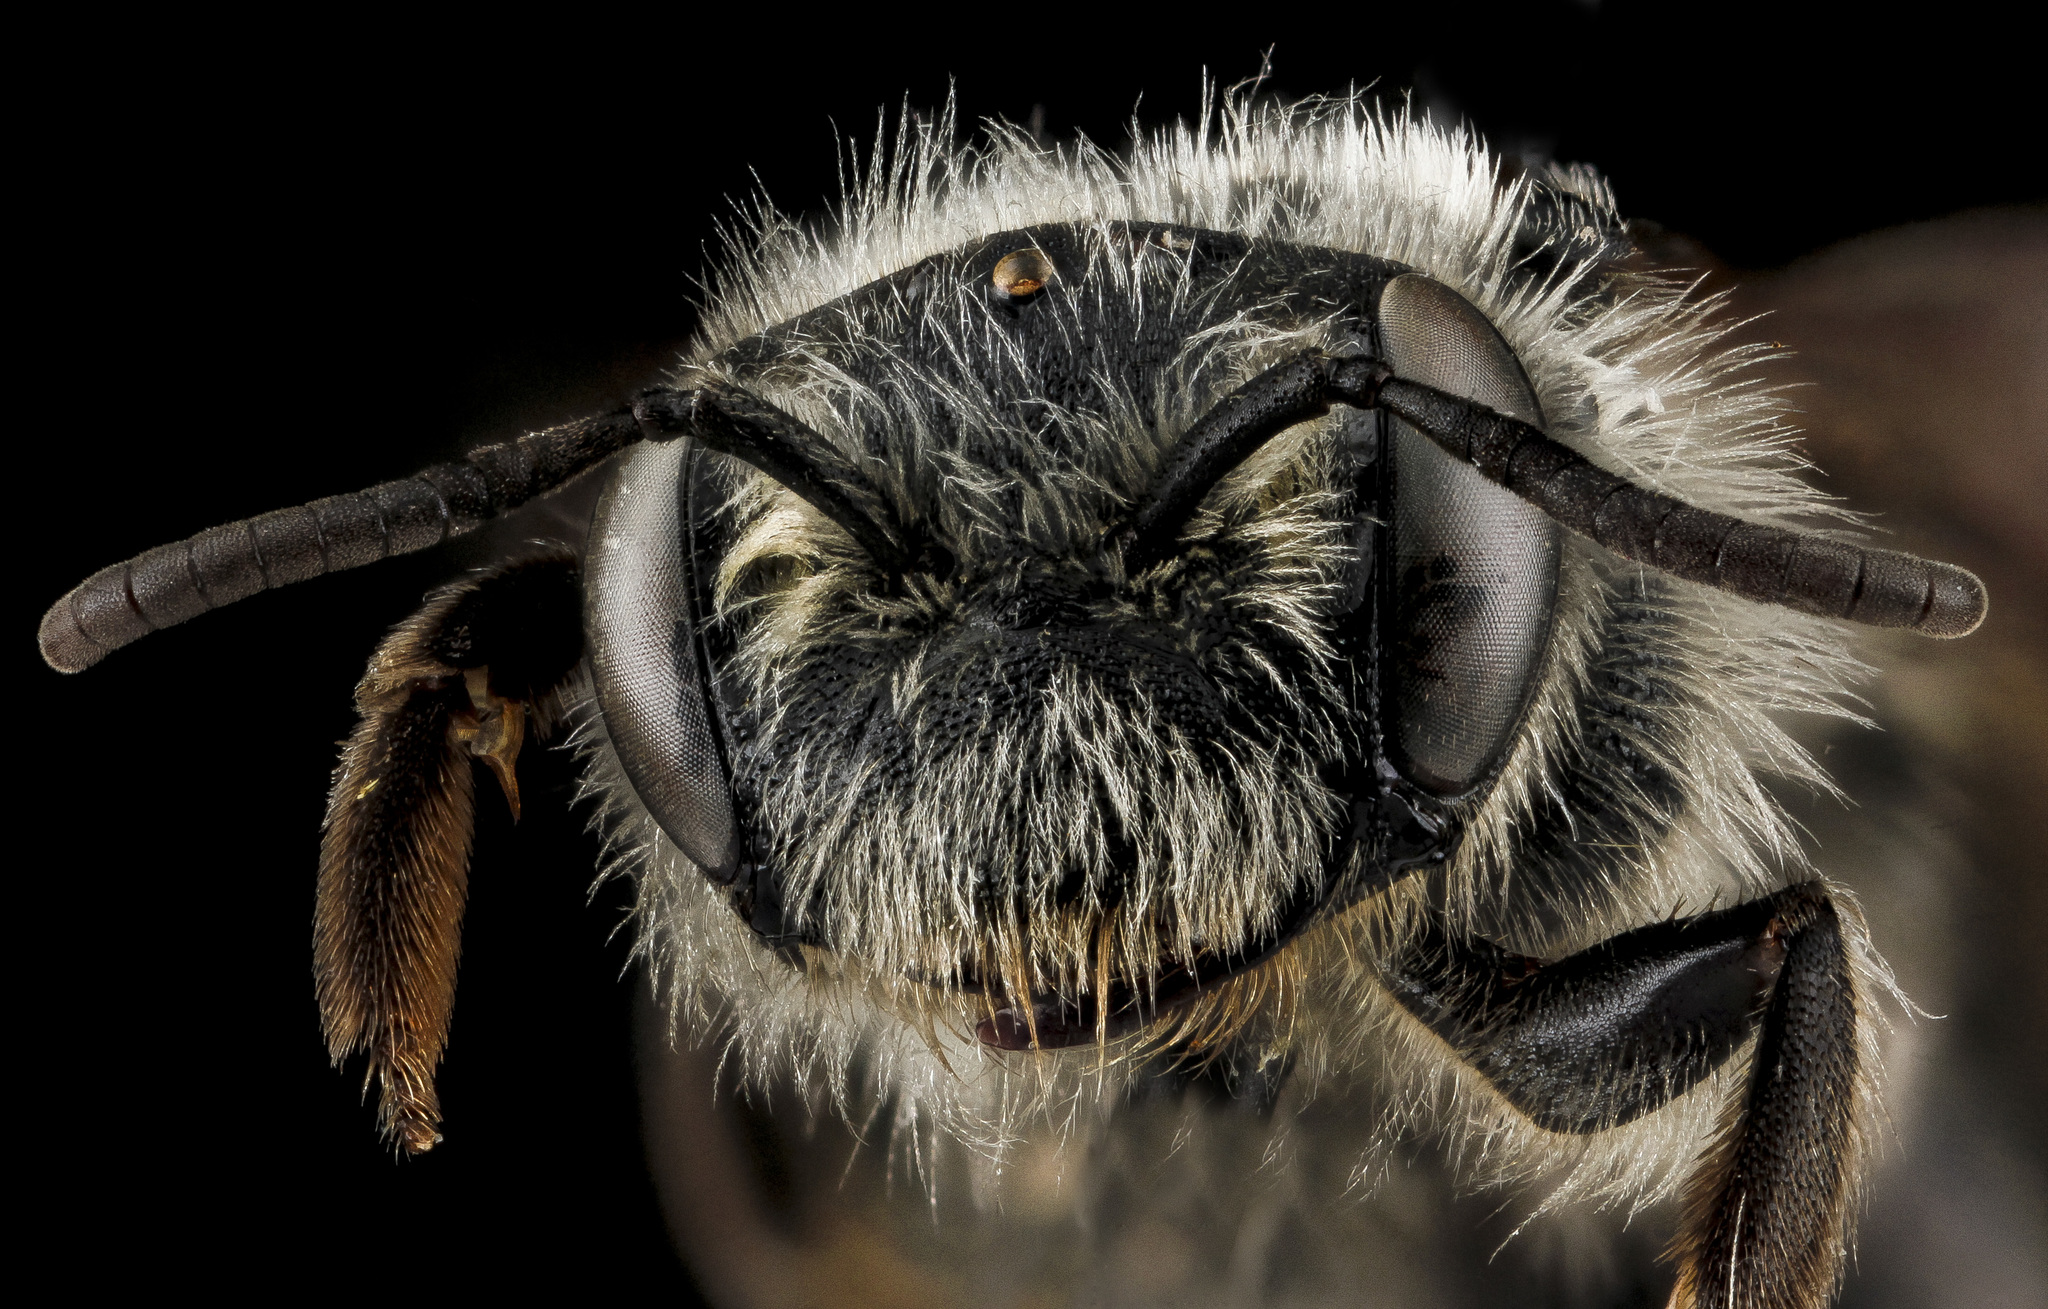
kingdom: Animalia
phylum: Arthropoda
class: Insecta
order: Hymenoptera
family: Andrenidae
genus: Andrena
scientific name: Andrena pallidiscopa
